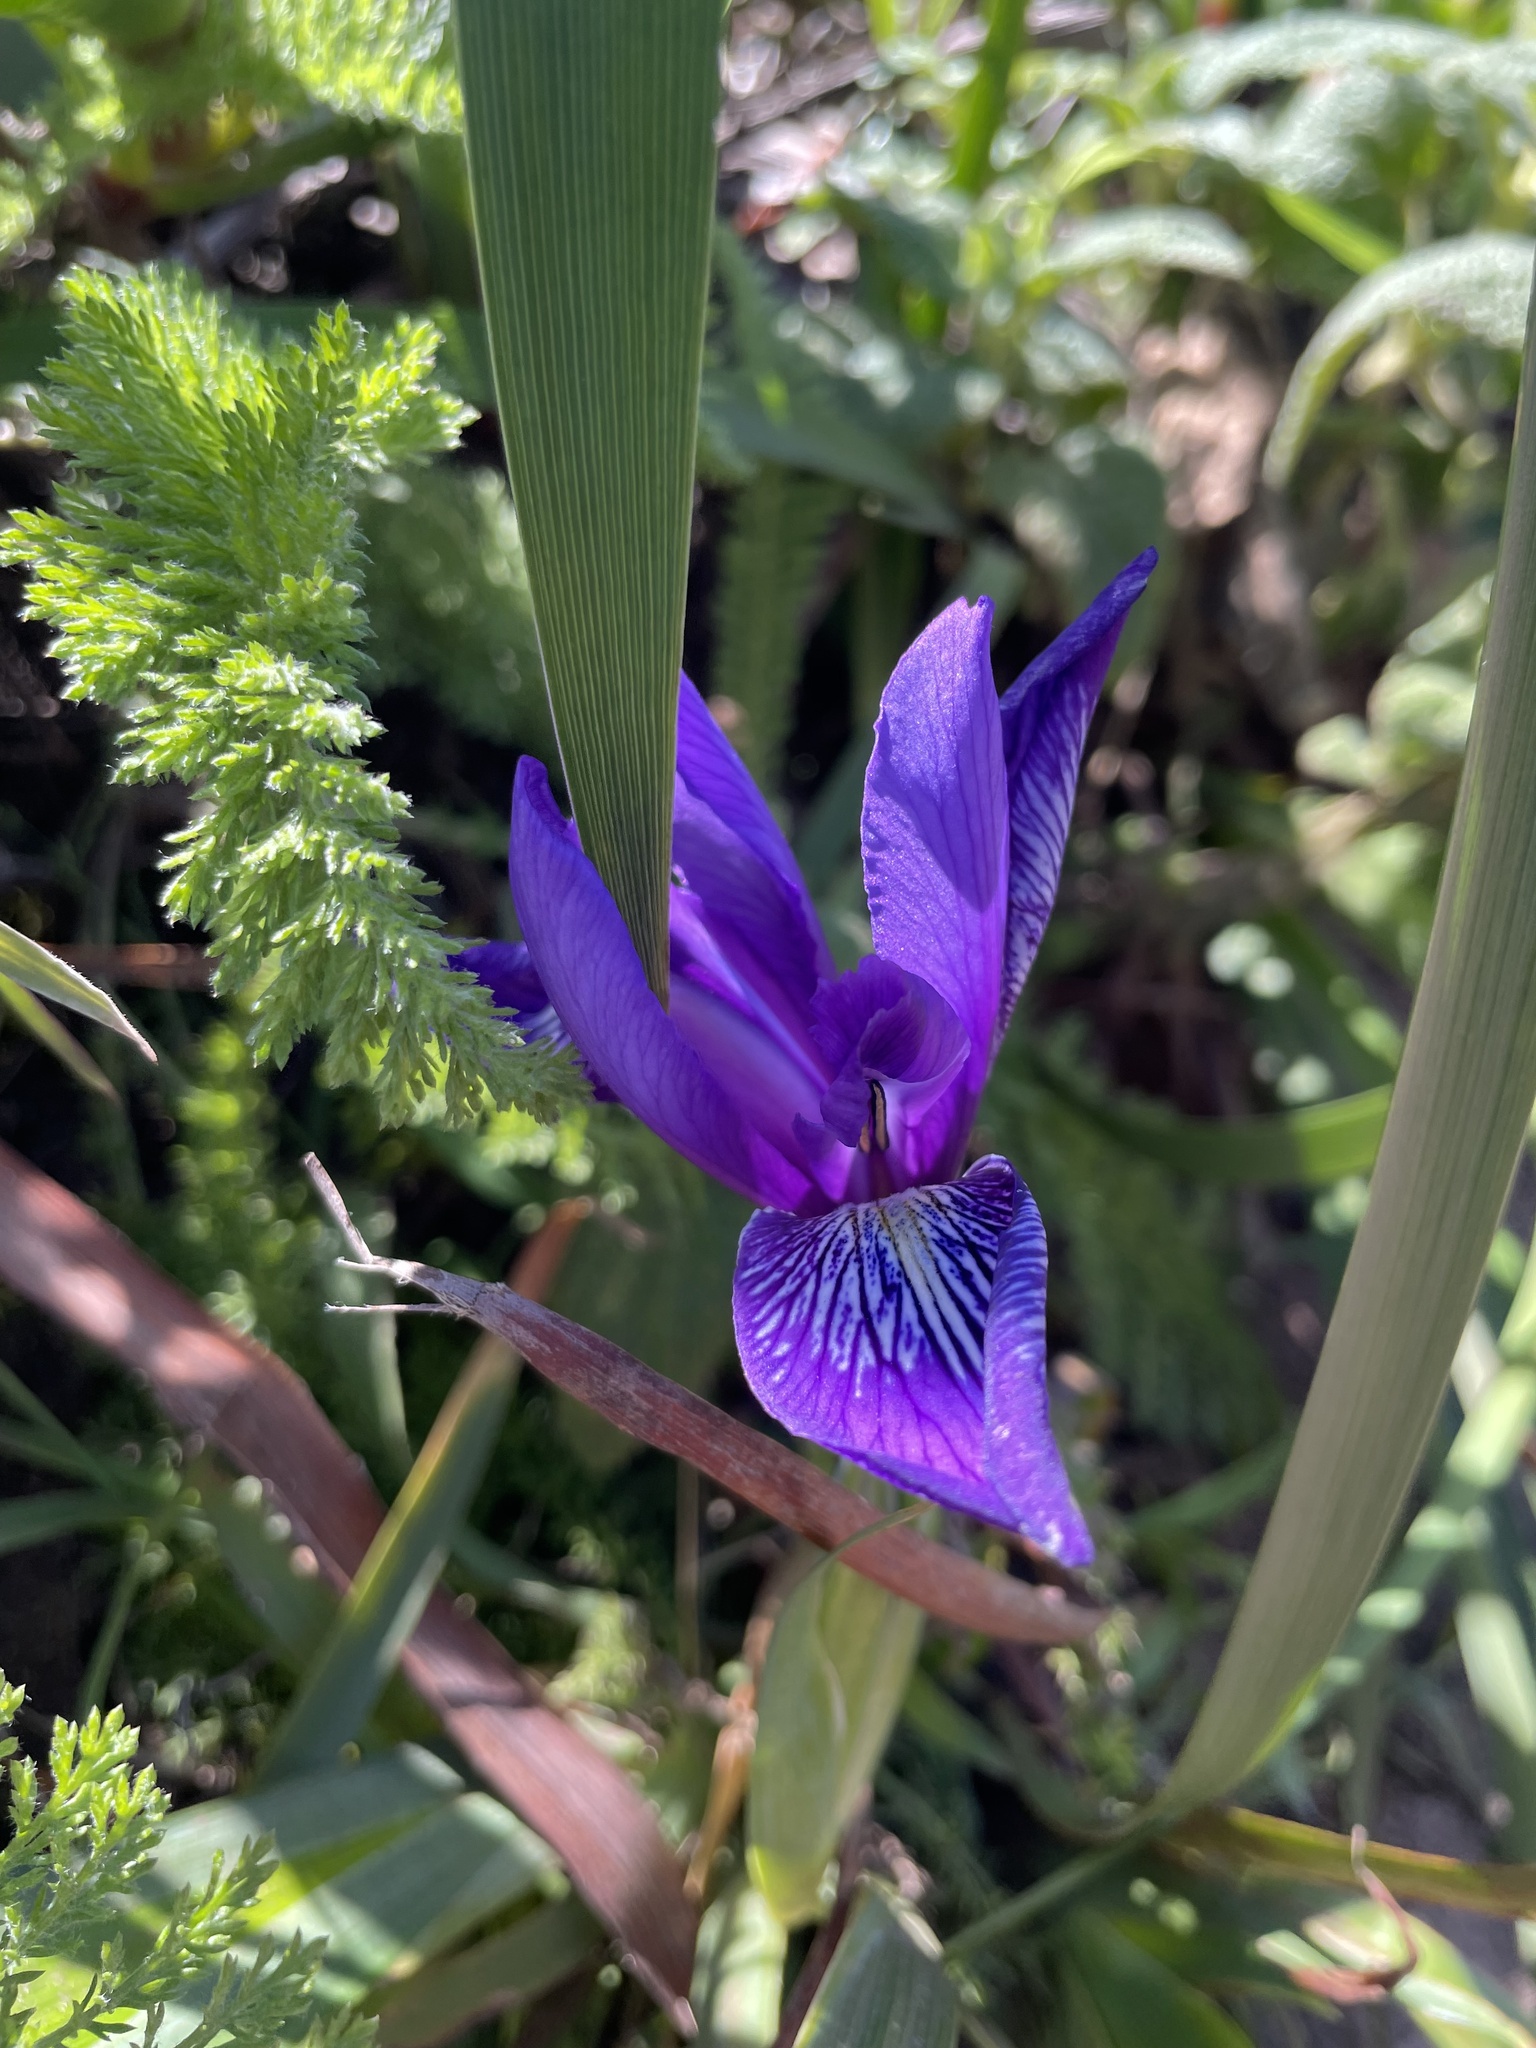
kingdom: Plantae
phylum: Tracheophyta
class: Liliopsida
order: Asparagales
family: Iridaceae
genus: Iris
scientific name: Iris douglasiana
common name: Marin iris
